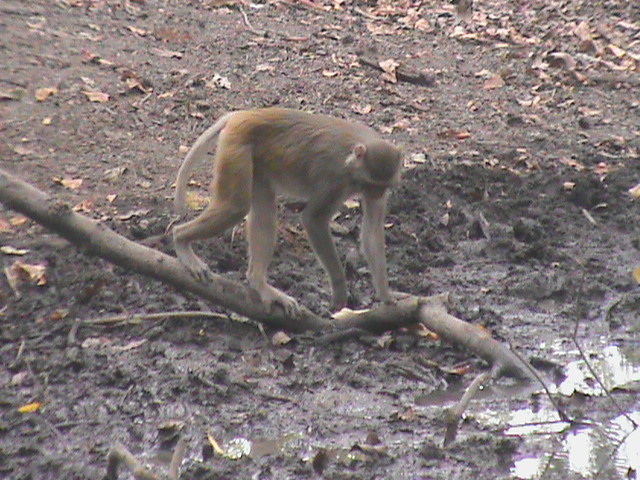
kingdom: Animalia
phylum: Chordata
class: Mammalia
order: Primates
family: Cercopithecidae
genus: Macaca
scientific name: Macaca mulatta
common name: Rhesus monkey
